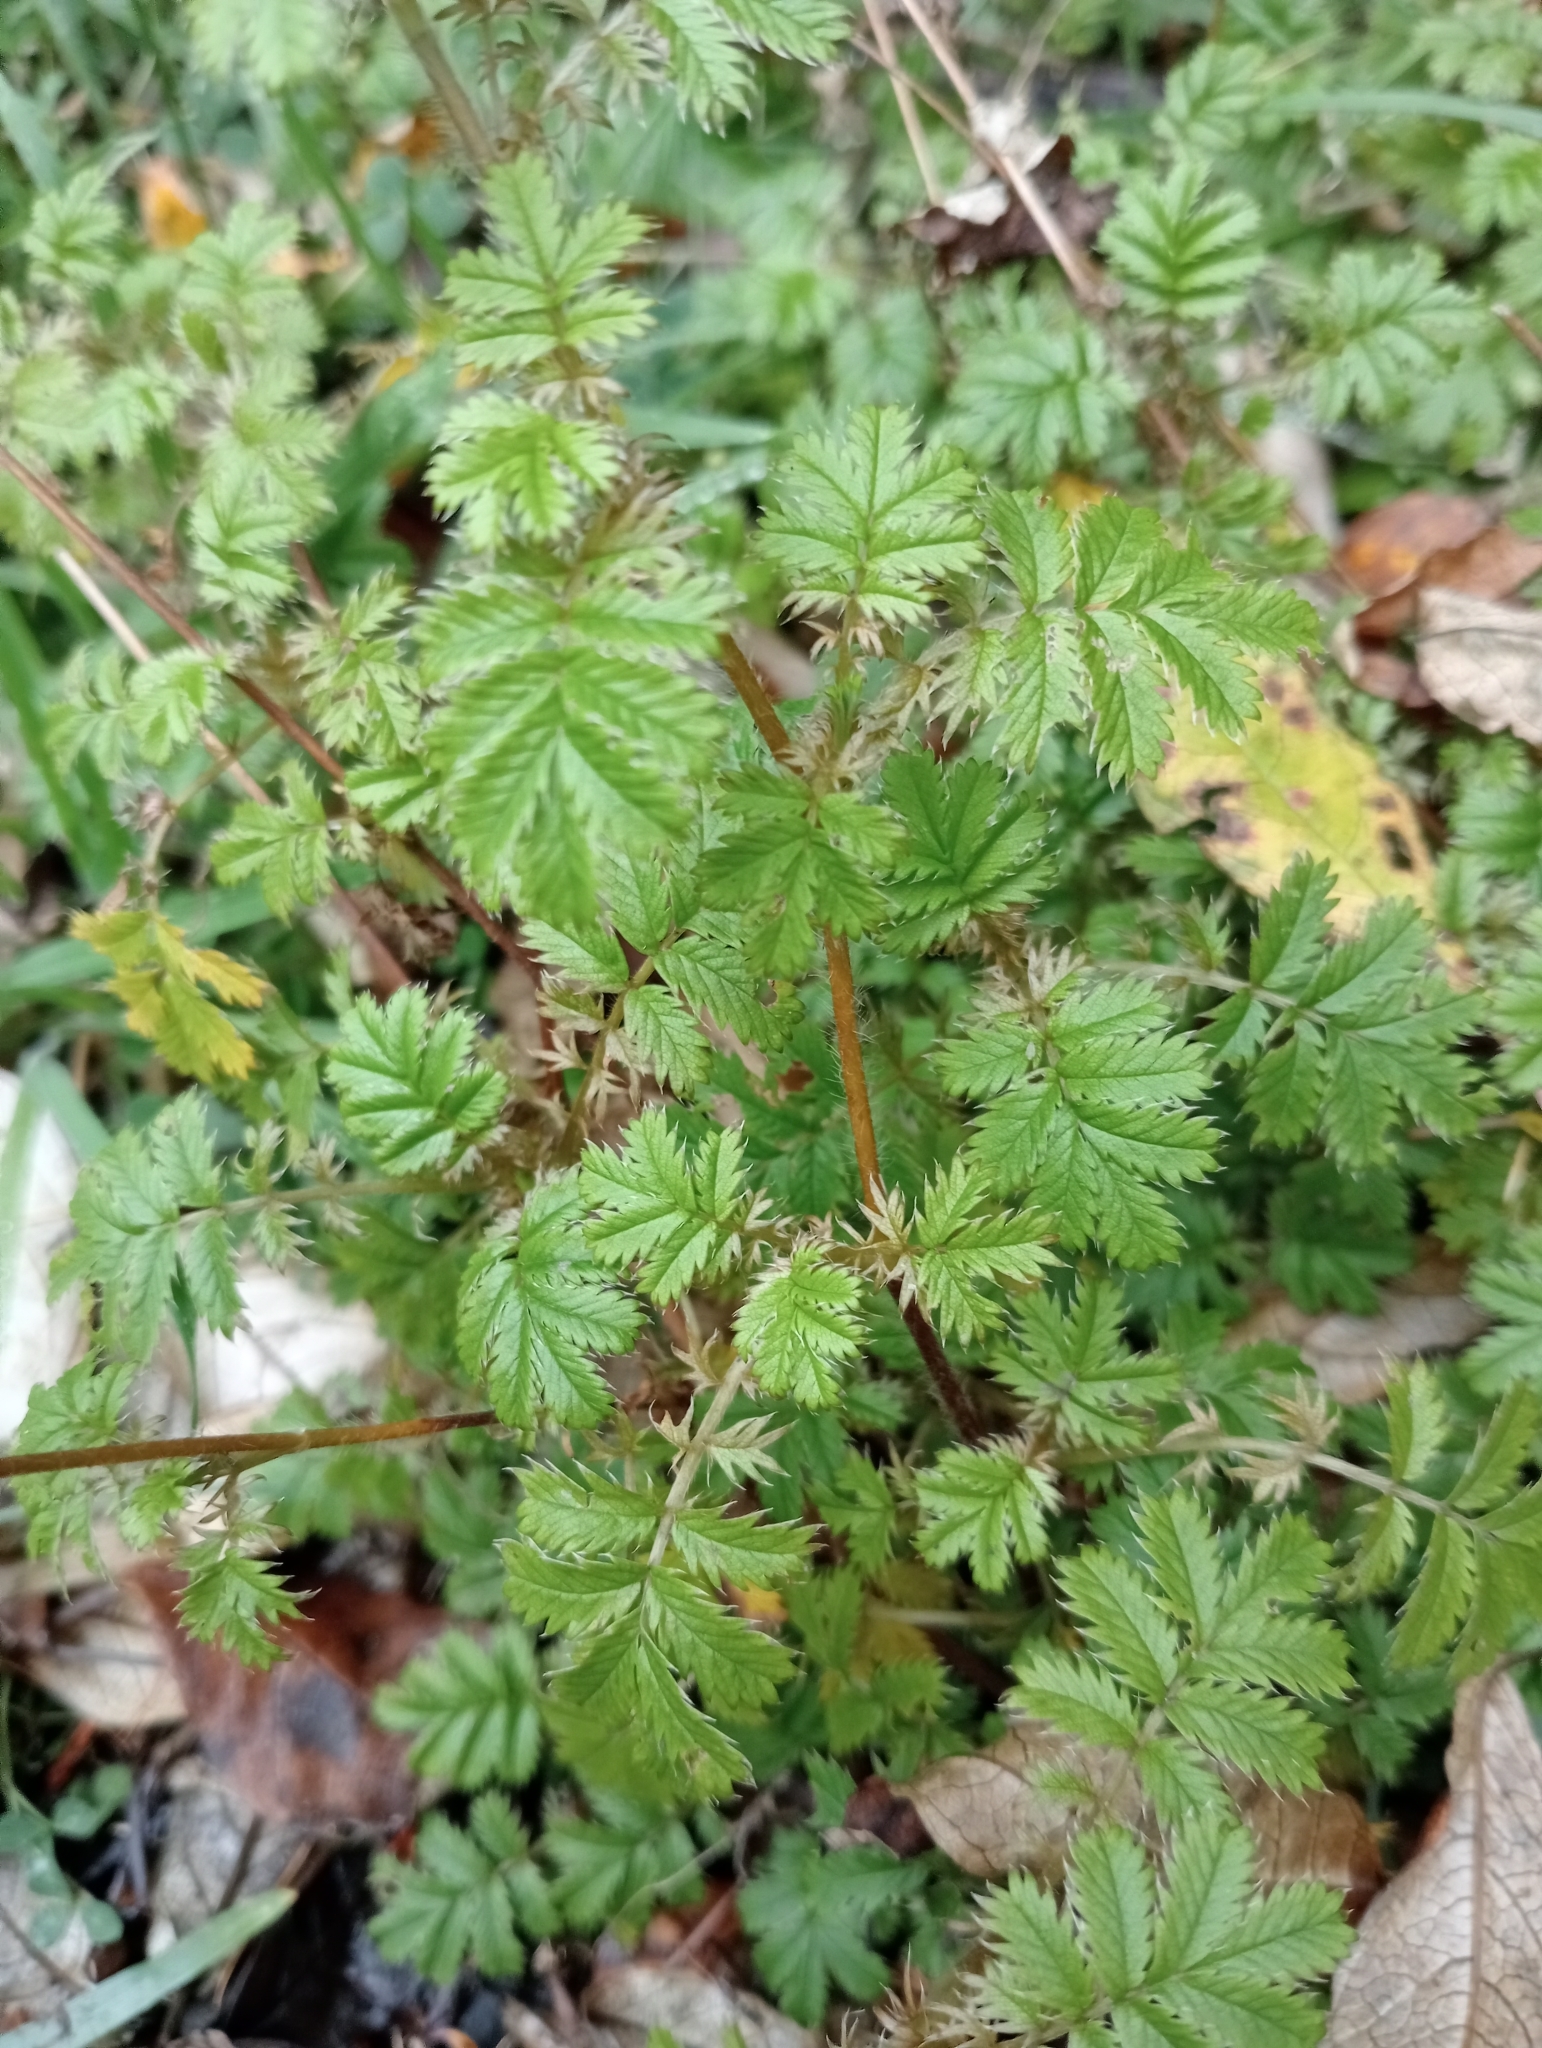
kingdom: Plantae
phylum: Tracheophyta
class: Magnoliopsida
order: Rosales
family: Rosaceae
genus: Acaena
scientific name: Acaena anserinifolia
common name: Bronze pirri-pirri-bur
